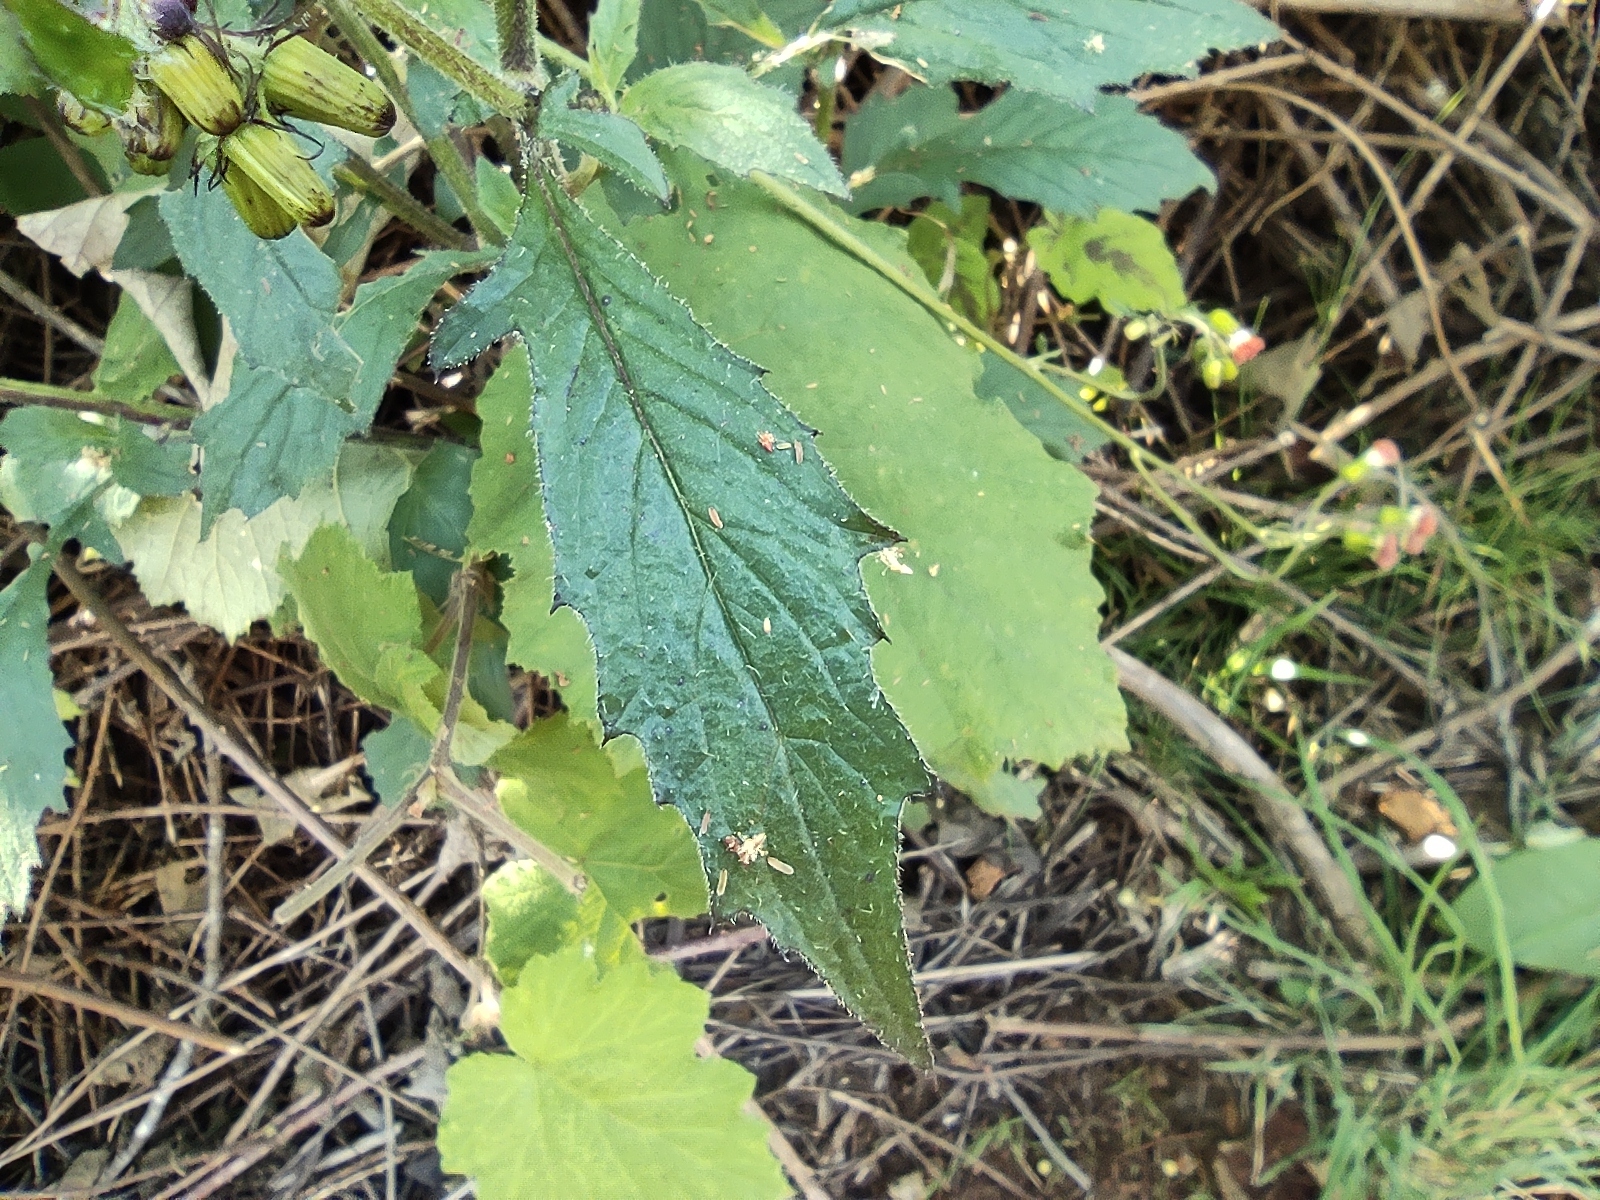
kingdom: Plantae
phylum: Tracheophyta
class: Magnoliopsida
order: Asterales
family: Asteraceae
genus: Crassocephalum
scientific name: Crassocephalum crepidioides
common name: Redflower ragleaf
